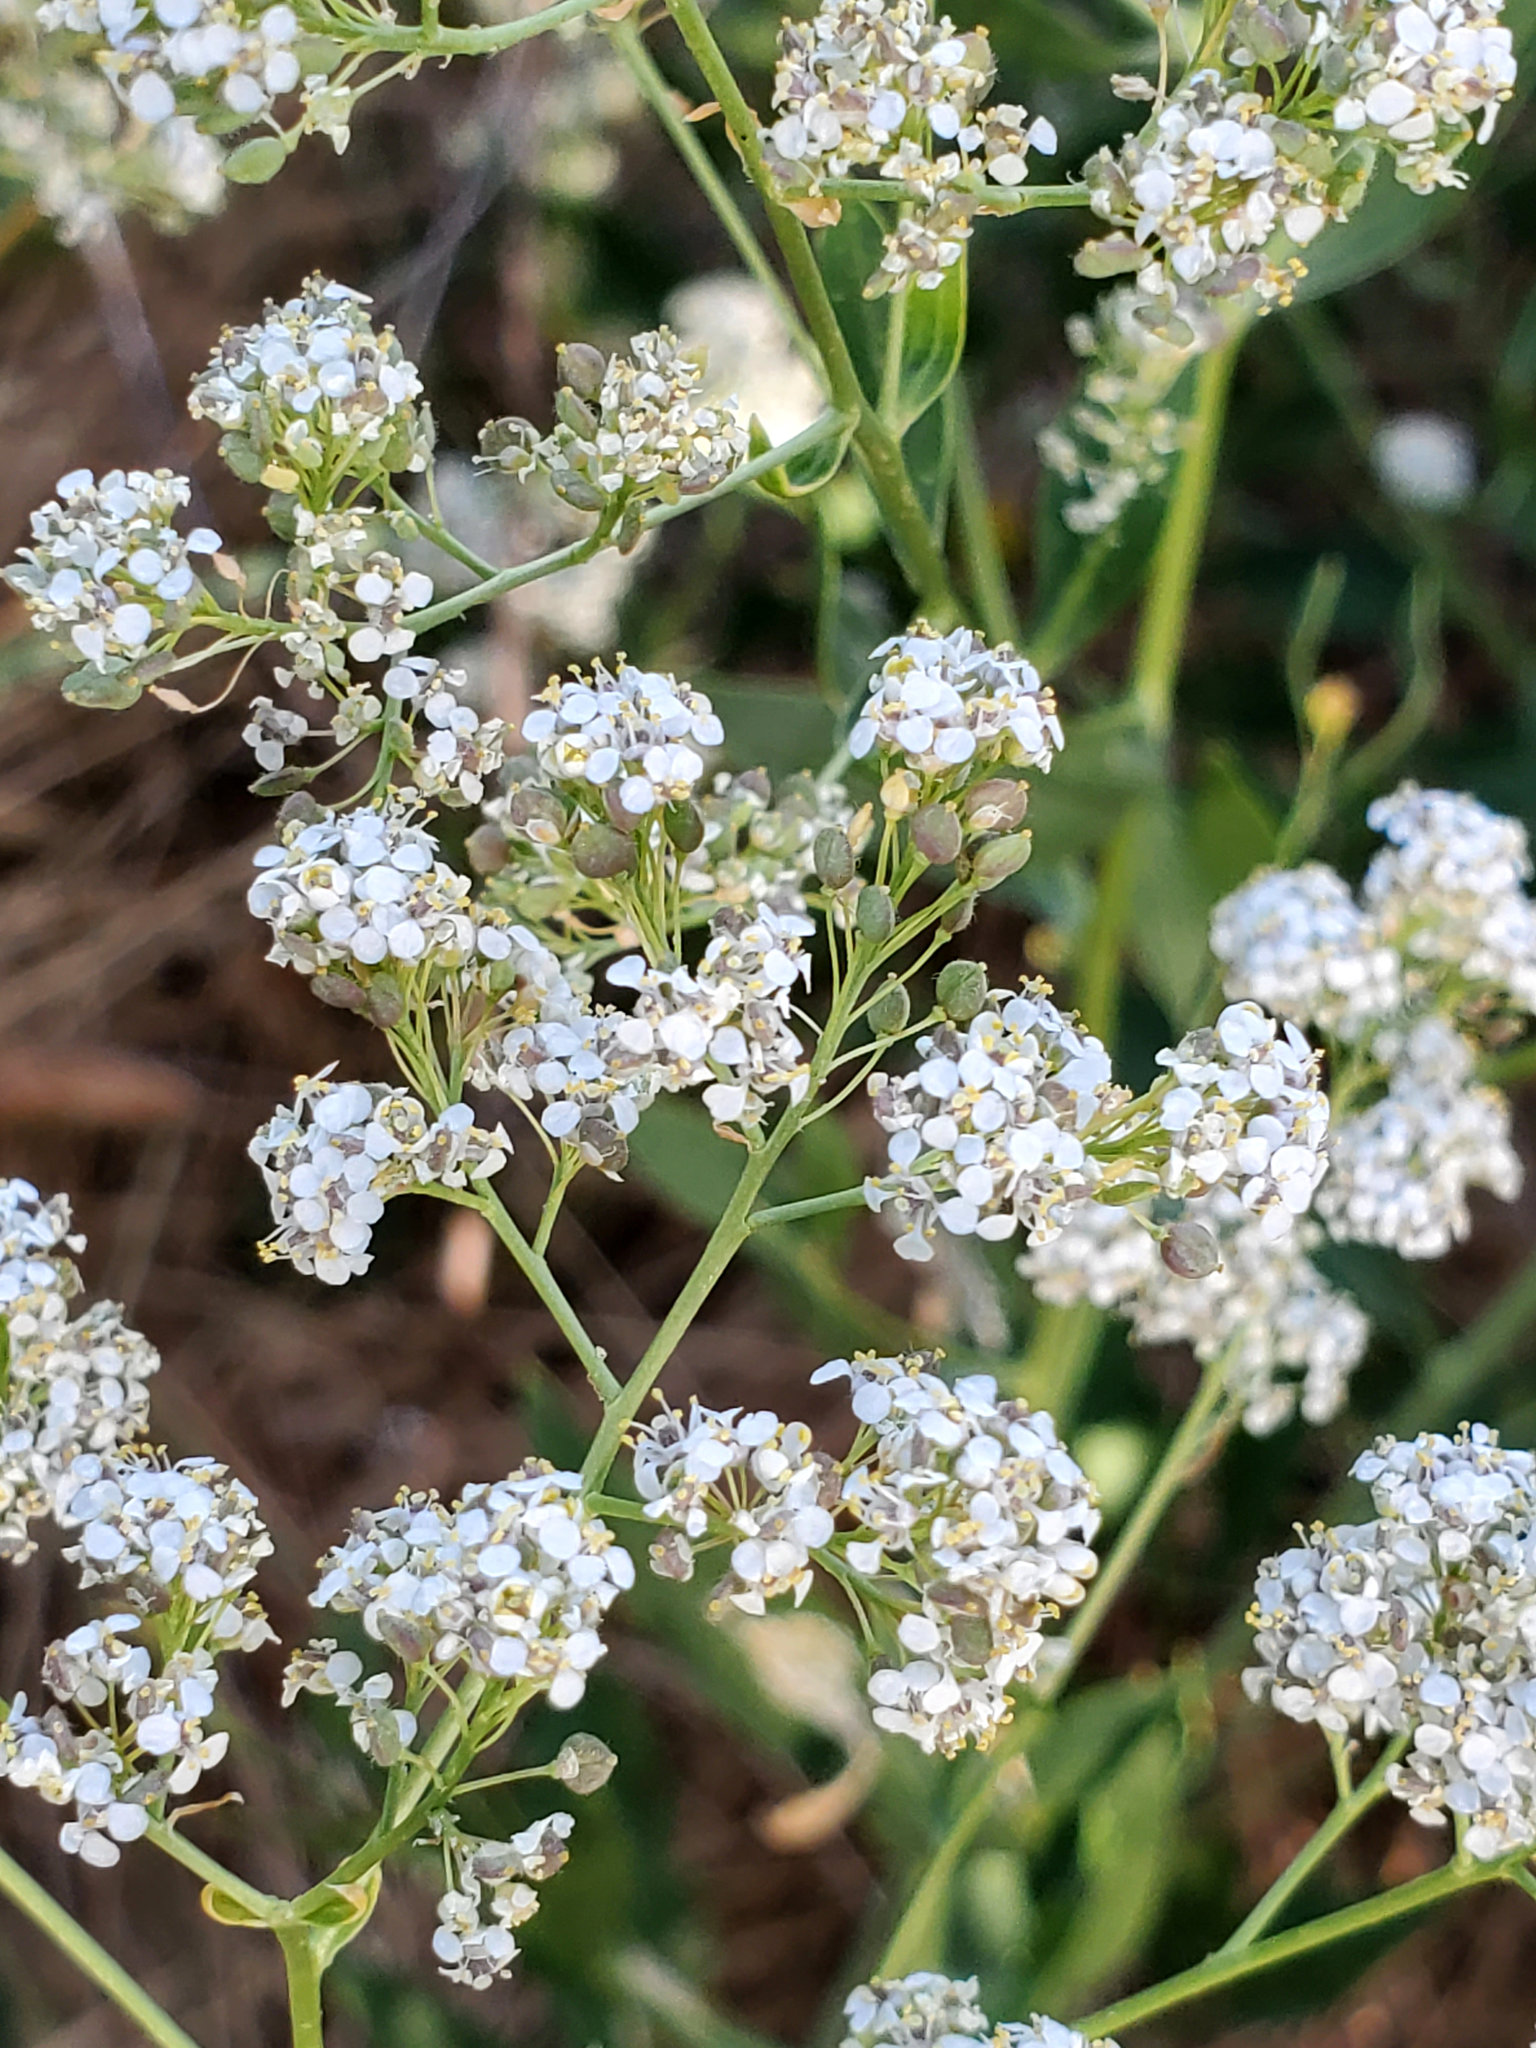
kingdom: Plantae
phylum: Tracheophyta
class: Magnoliopsida
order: Brassicales
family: Brassicaceae
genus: Lepidium
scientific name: Lepidium latifolium
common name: Dittander
